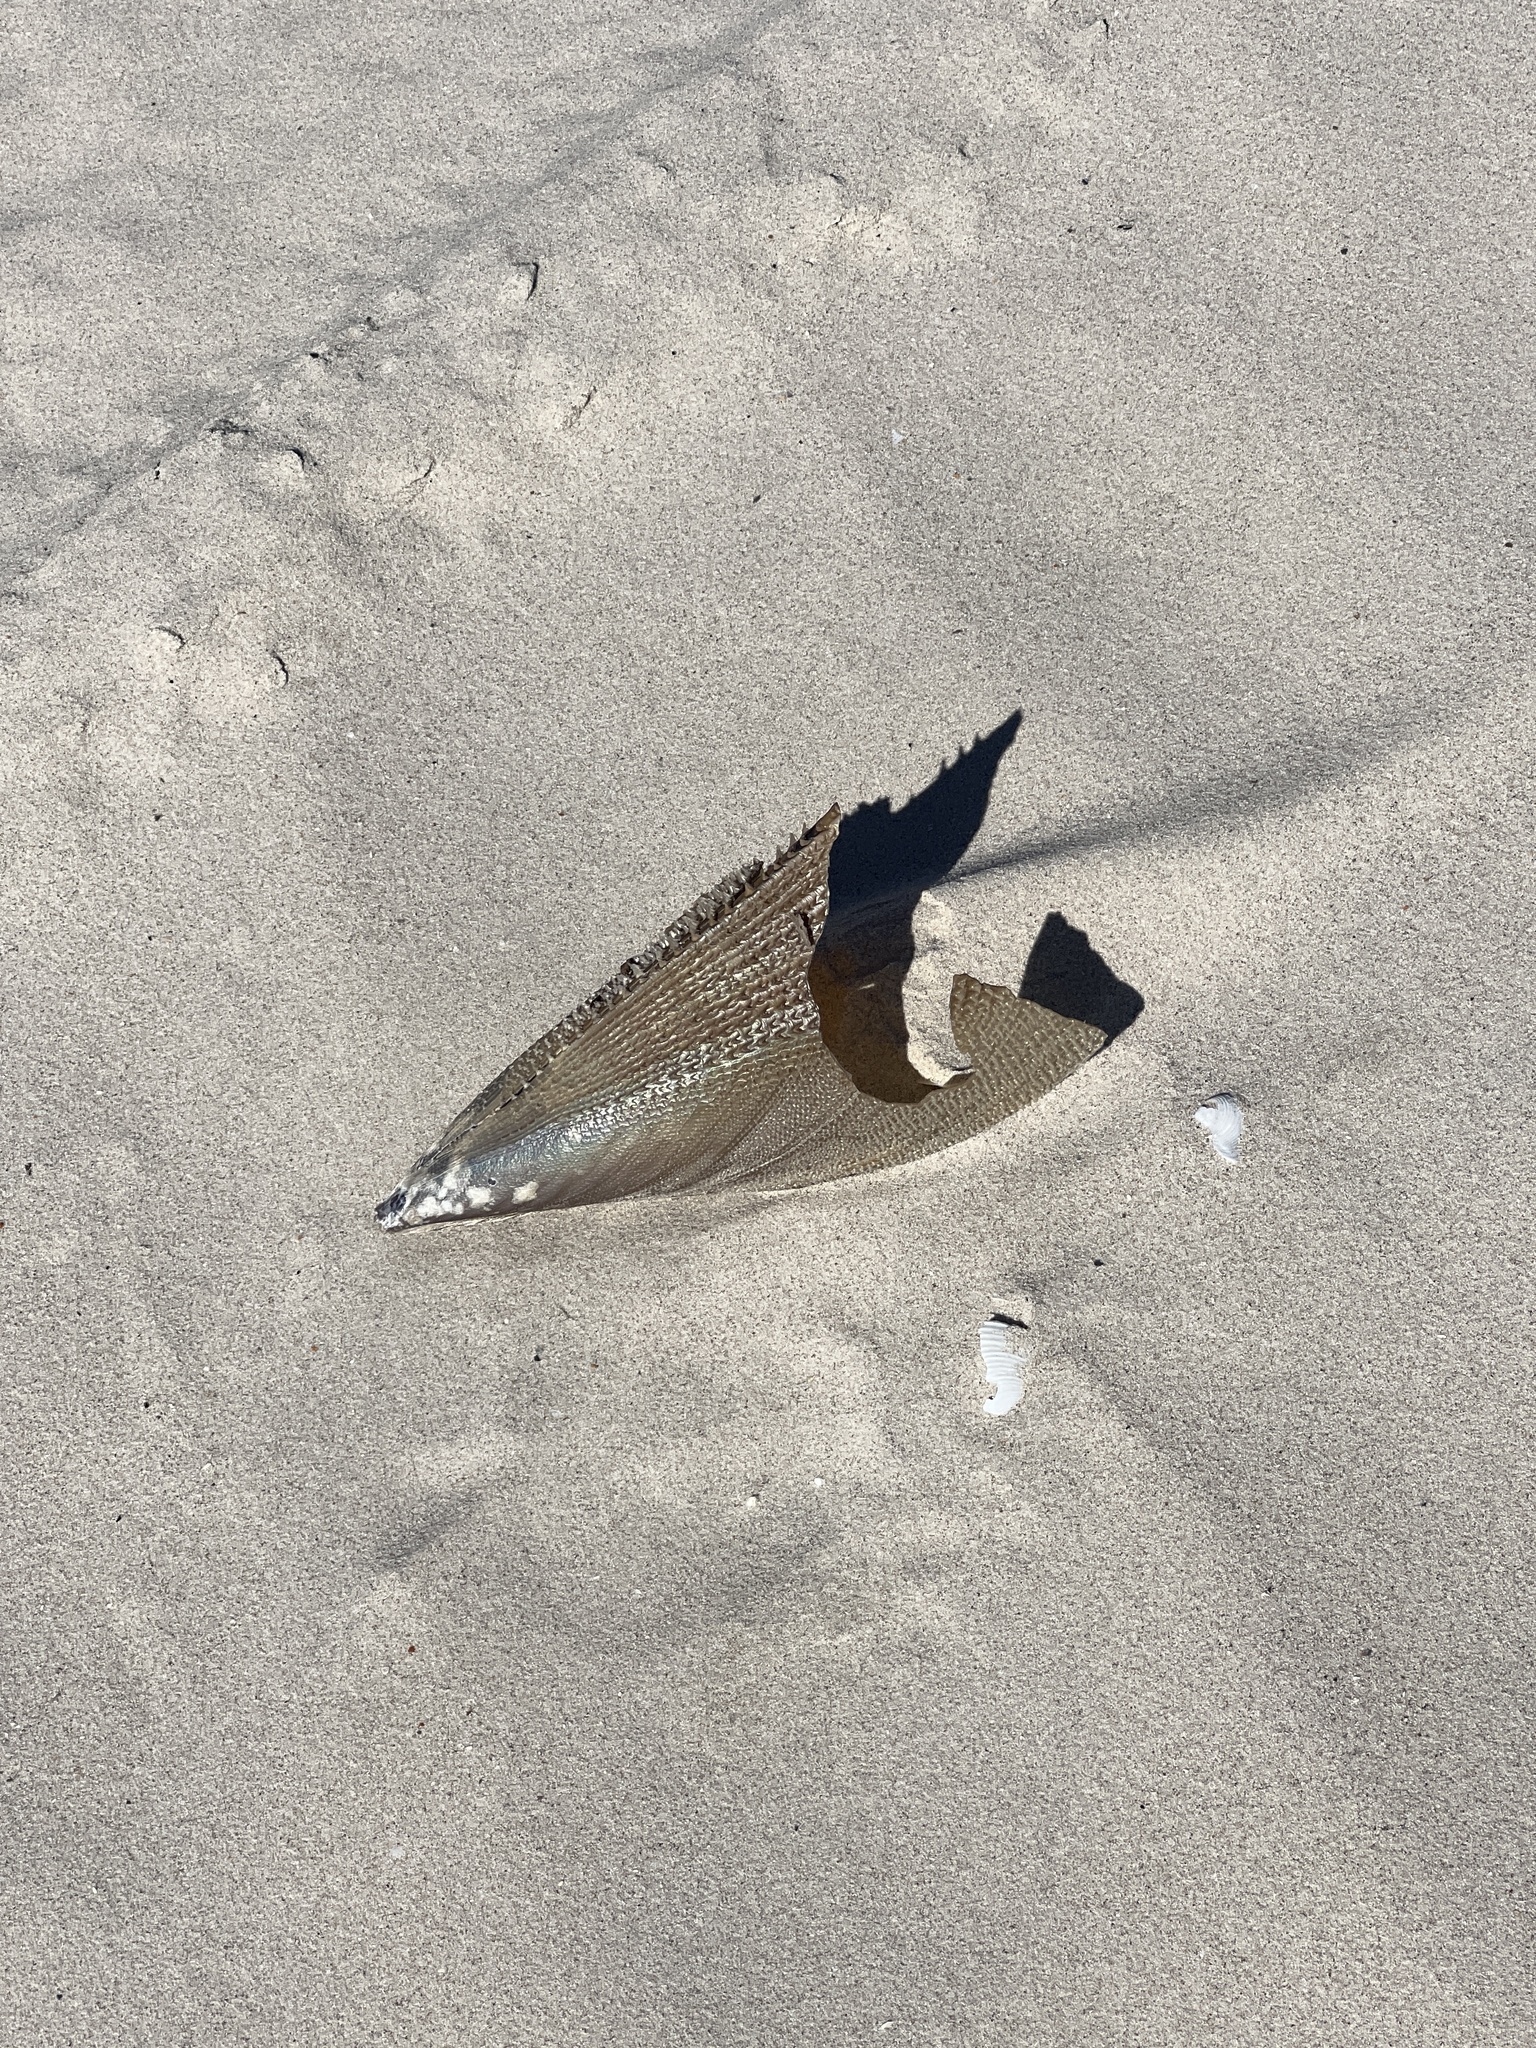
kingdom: Animalia
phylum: Mollusca
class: Bivalvia
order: Ostreida
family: Pinnidae
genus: Atrina
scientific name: Atrina serrata
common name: Saw-toothed penshell
